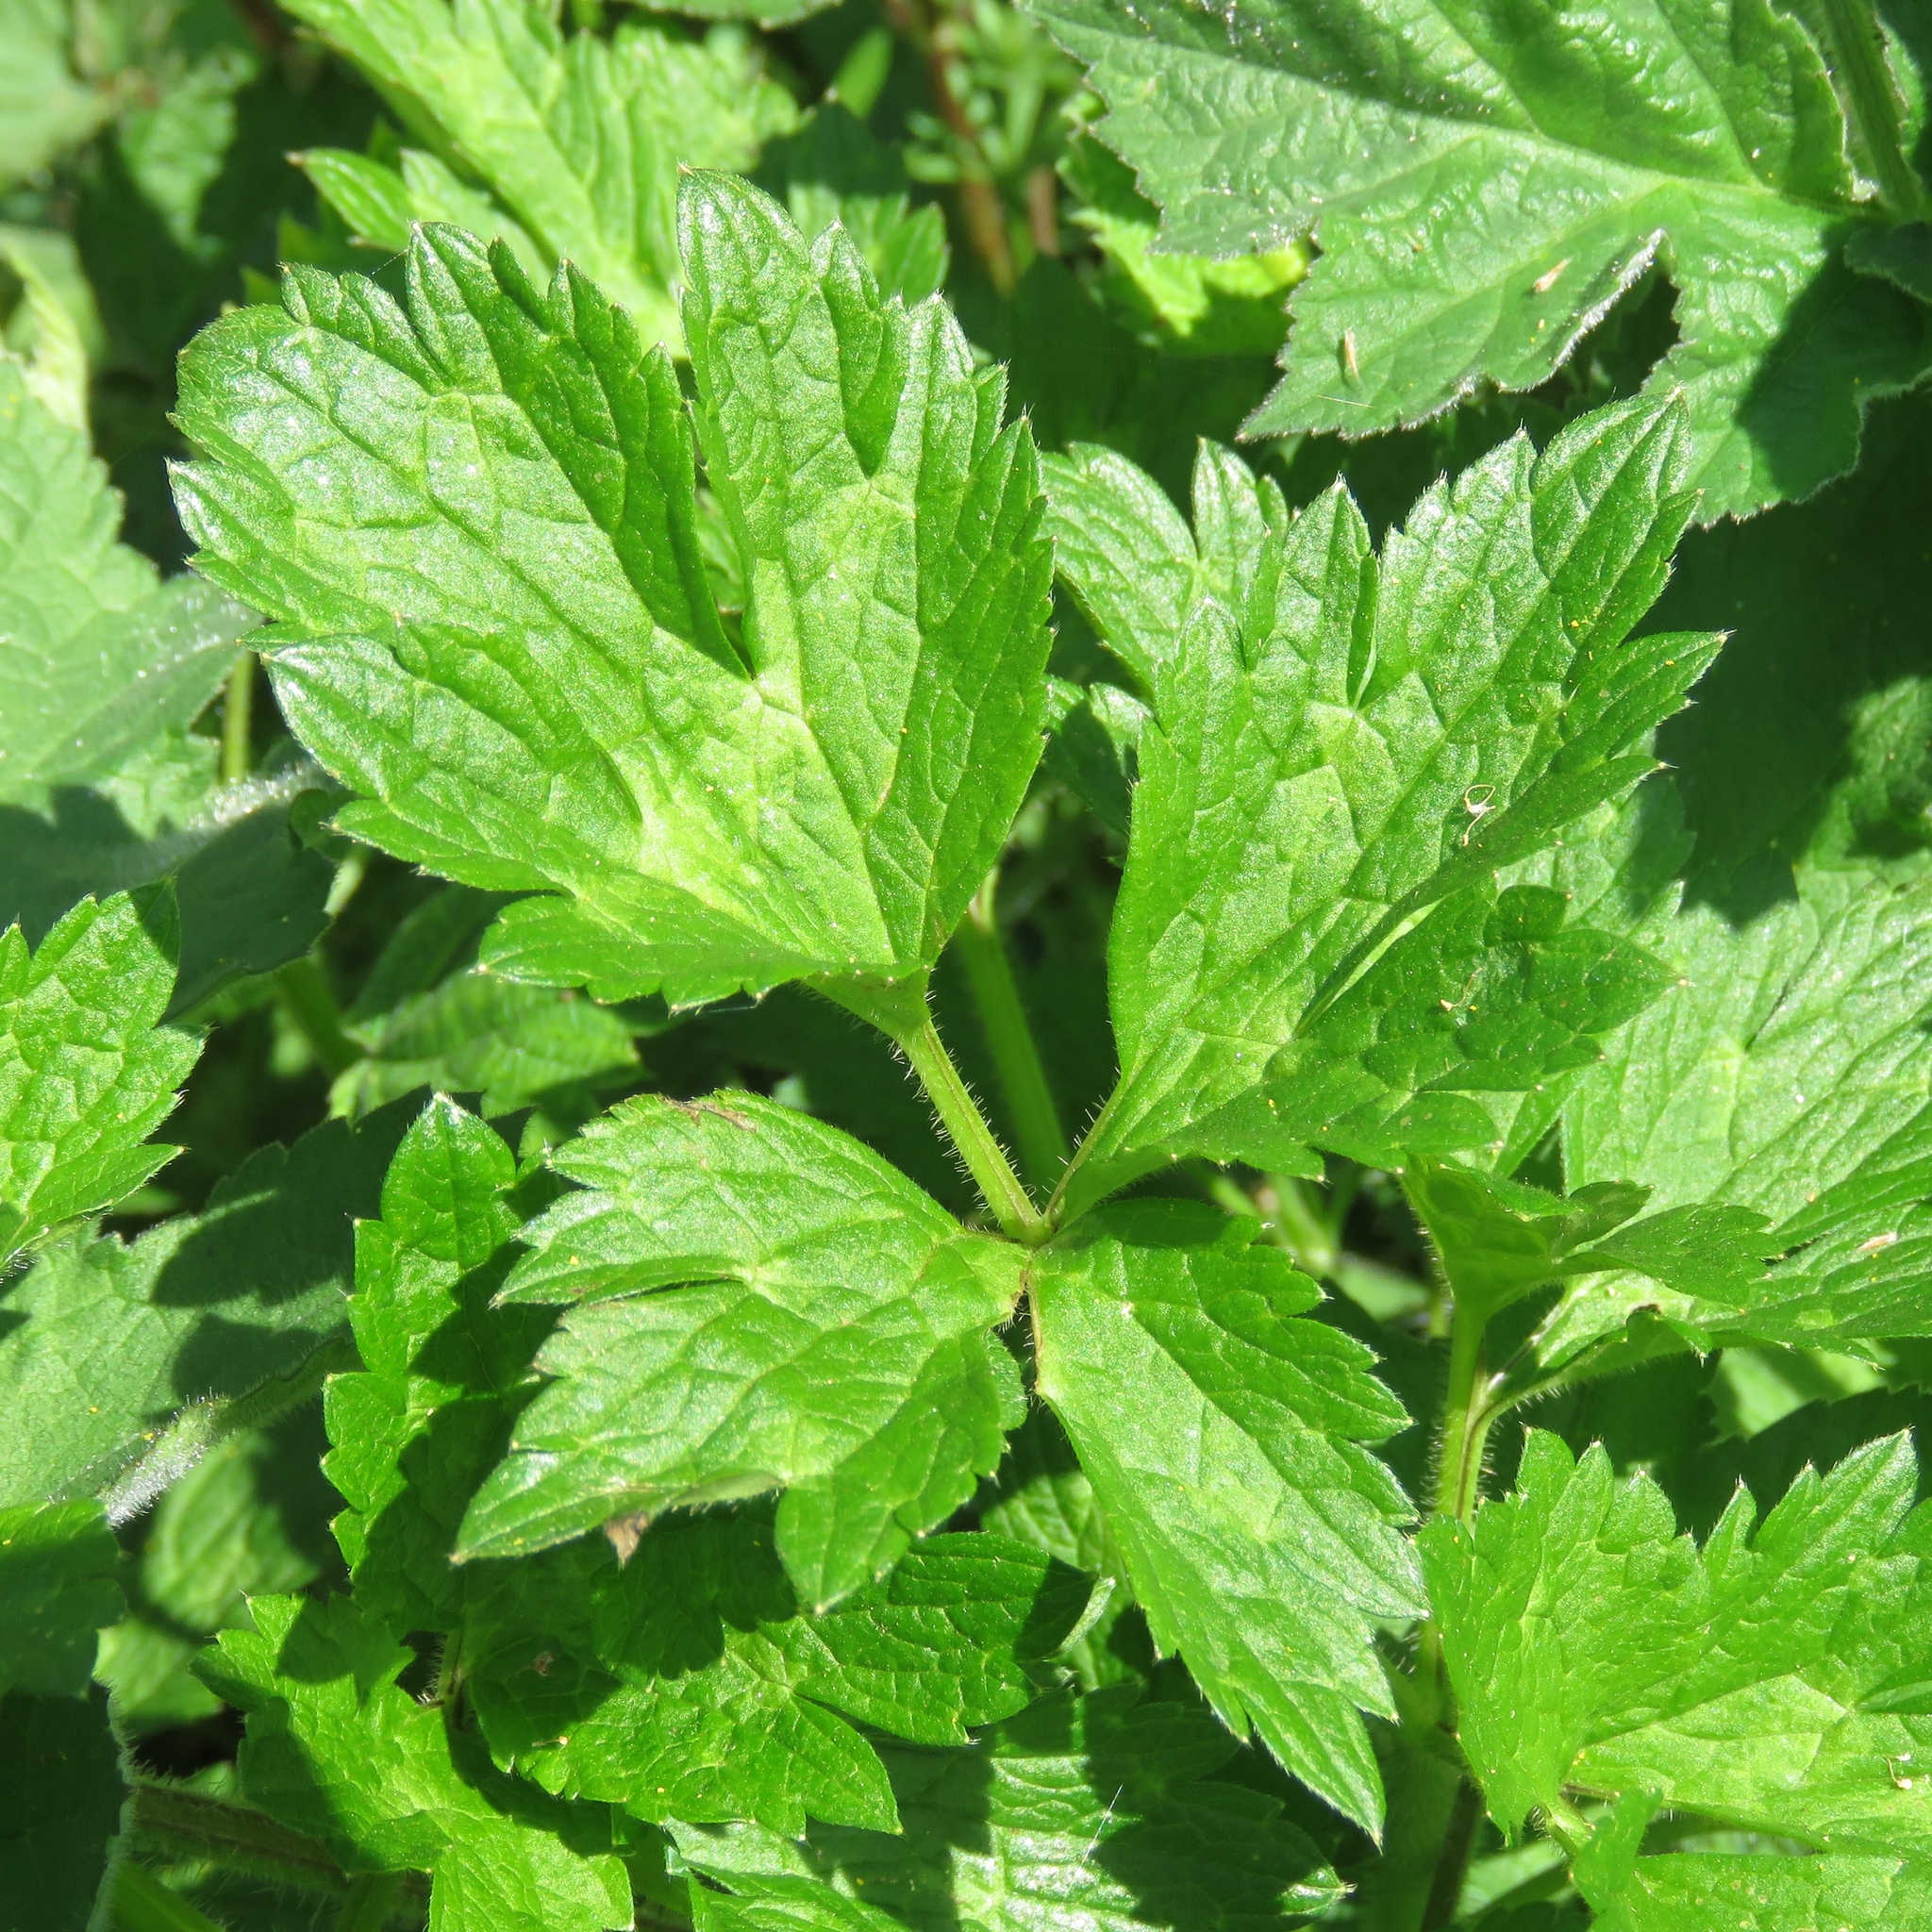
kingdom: Plantae
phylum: Tracheophyta
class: Magnoliopsida
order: Ranunculales
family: Ranunculaceae
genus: Ranunculus
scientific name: Ranunculus repens
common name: Creeping buttercup
